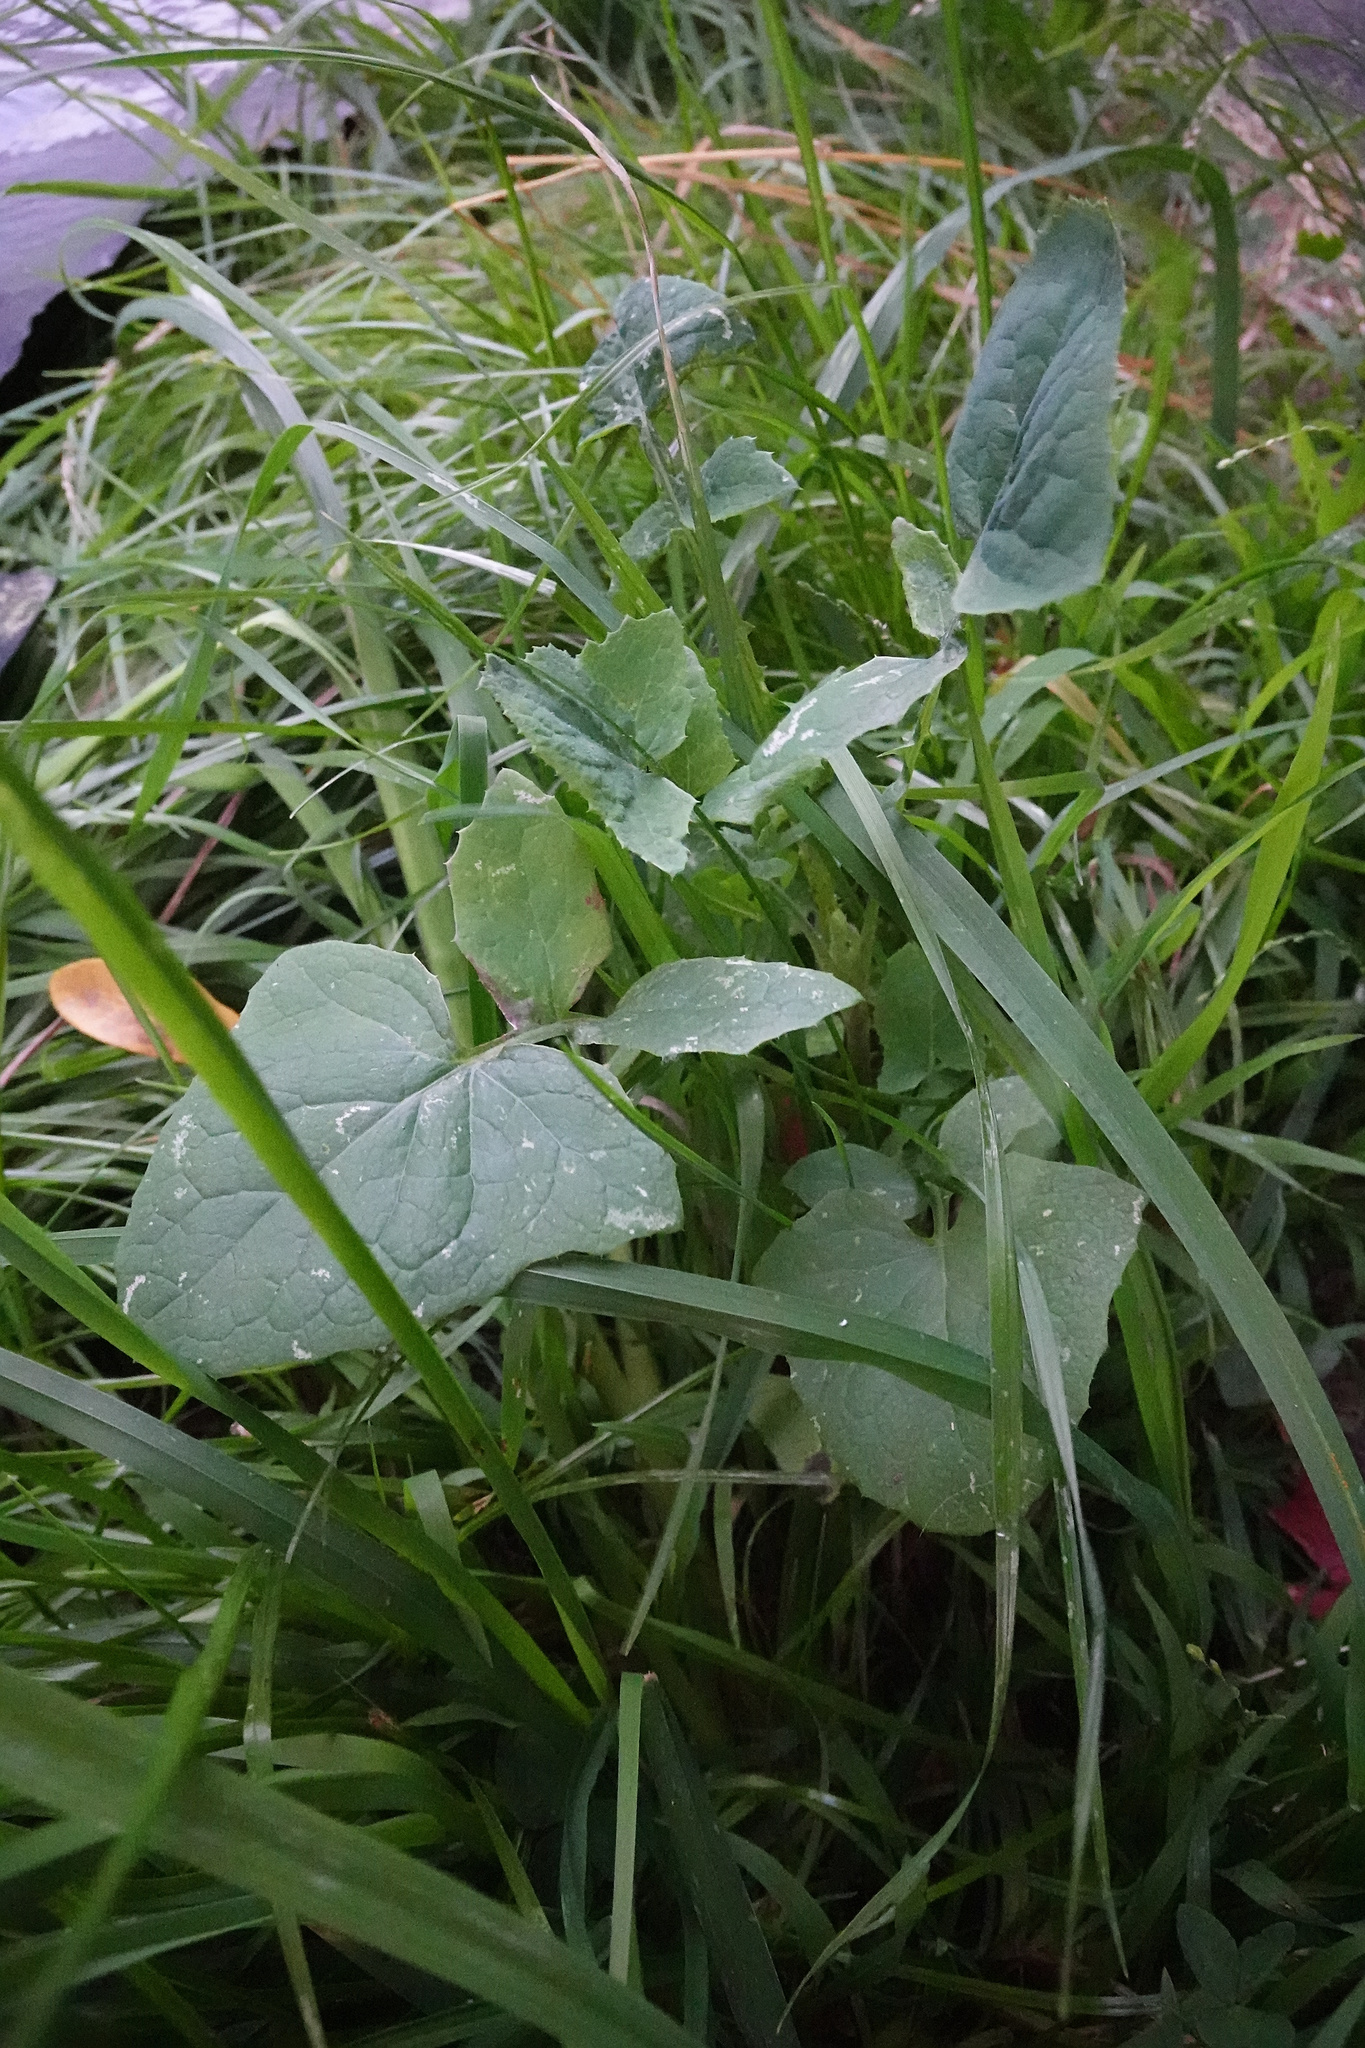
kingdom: Plantae
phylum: Tracheophyta
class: Magnoliopsida
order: Asterales
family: Asteraceae
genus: Sonchus
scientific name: Sonchus oleraceus
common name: Common sowthistle
